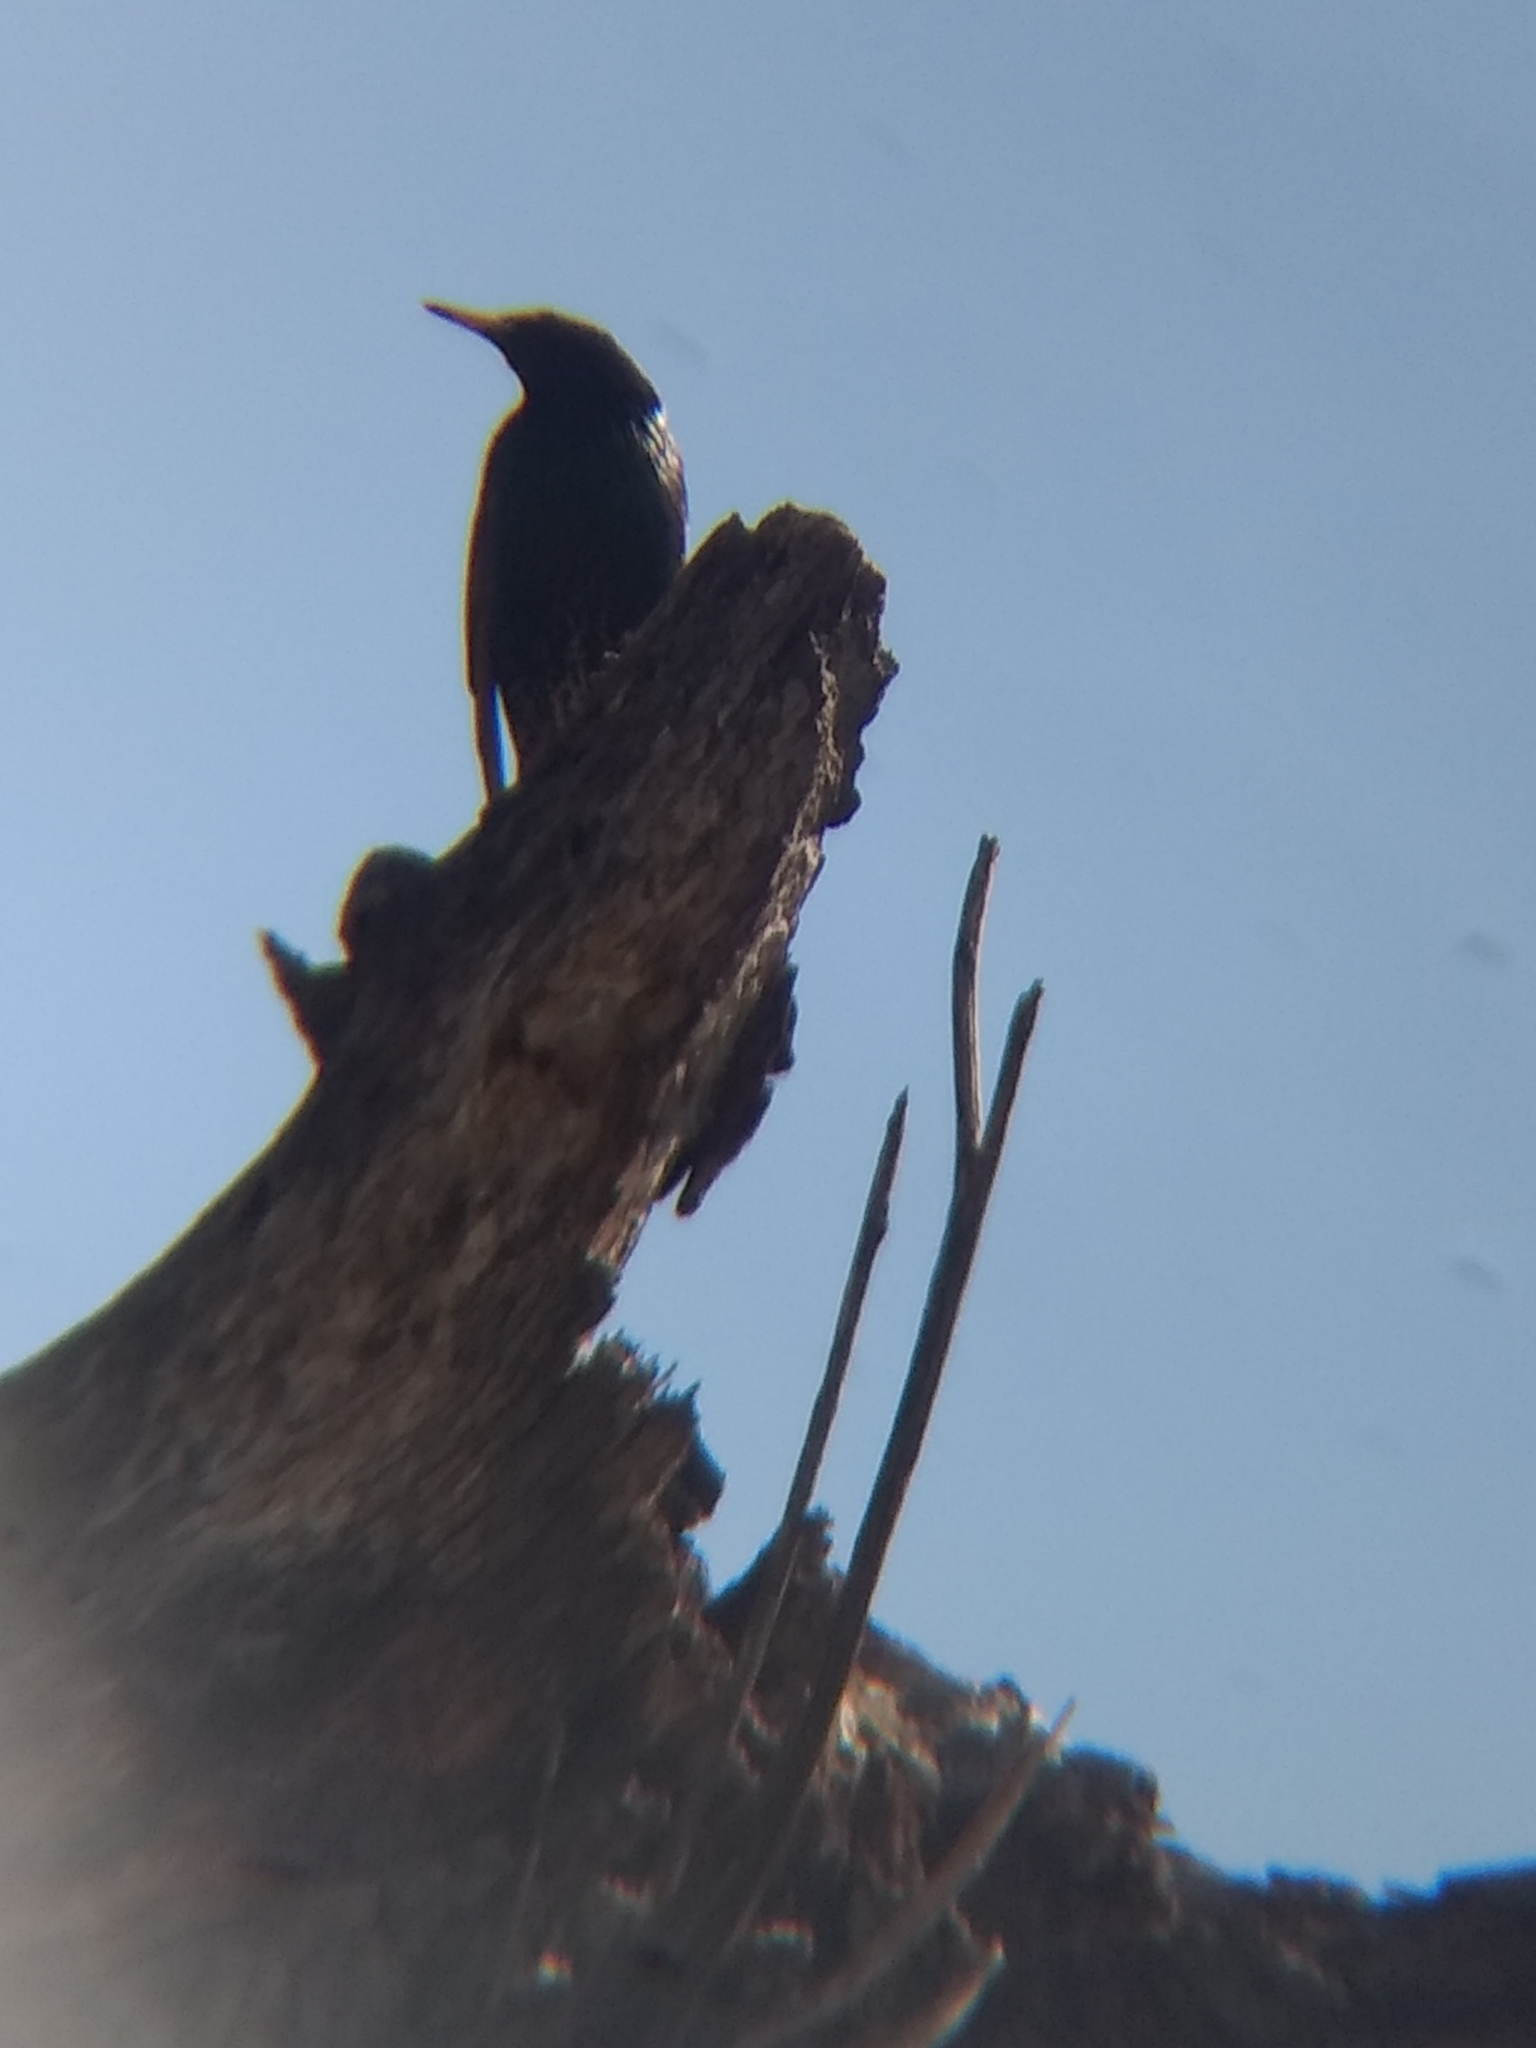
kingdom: Animalia
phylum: Chordata
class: Aves
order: Passeriformes
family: Sturnidae
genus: Sturnus
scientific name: Sturnus vulgaris
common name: Common starling
